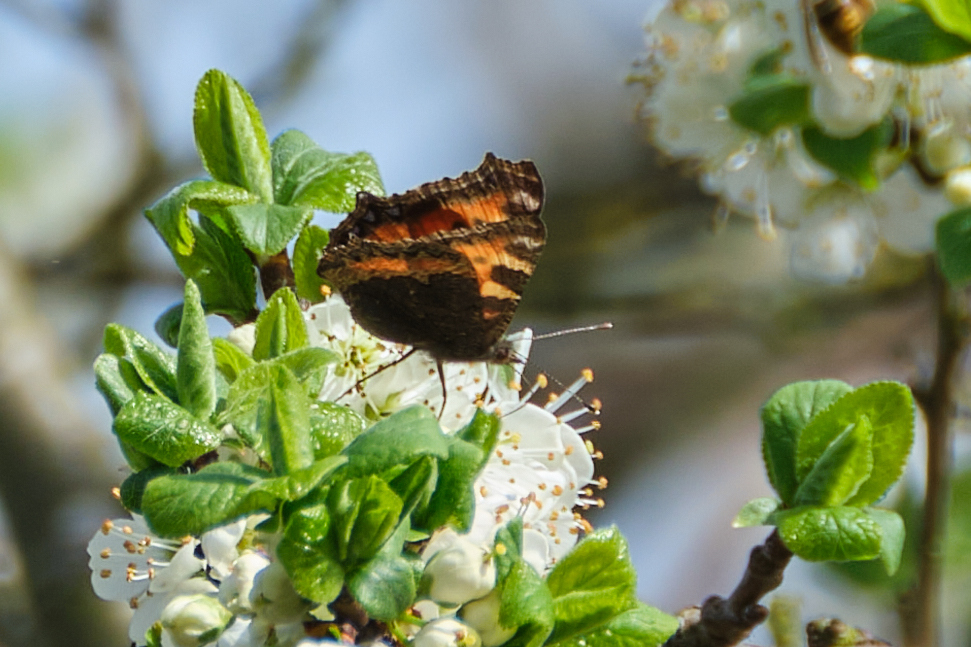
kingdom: Animalia
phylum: Arthropoda
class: Insecta
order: Lepidoptera
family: Nymphalidae
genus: Aglais
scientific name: Aglais urticae
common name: Small tortoiseshell
